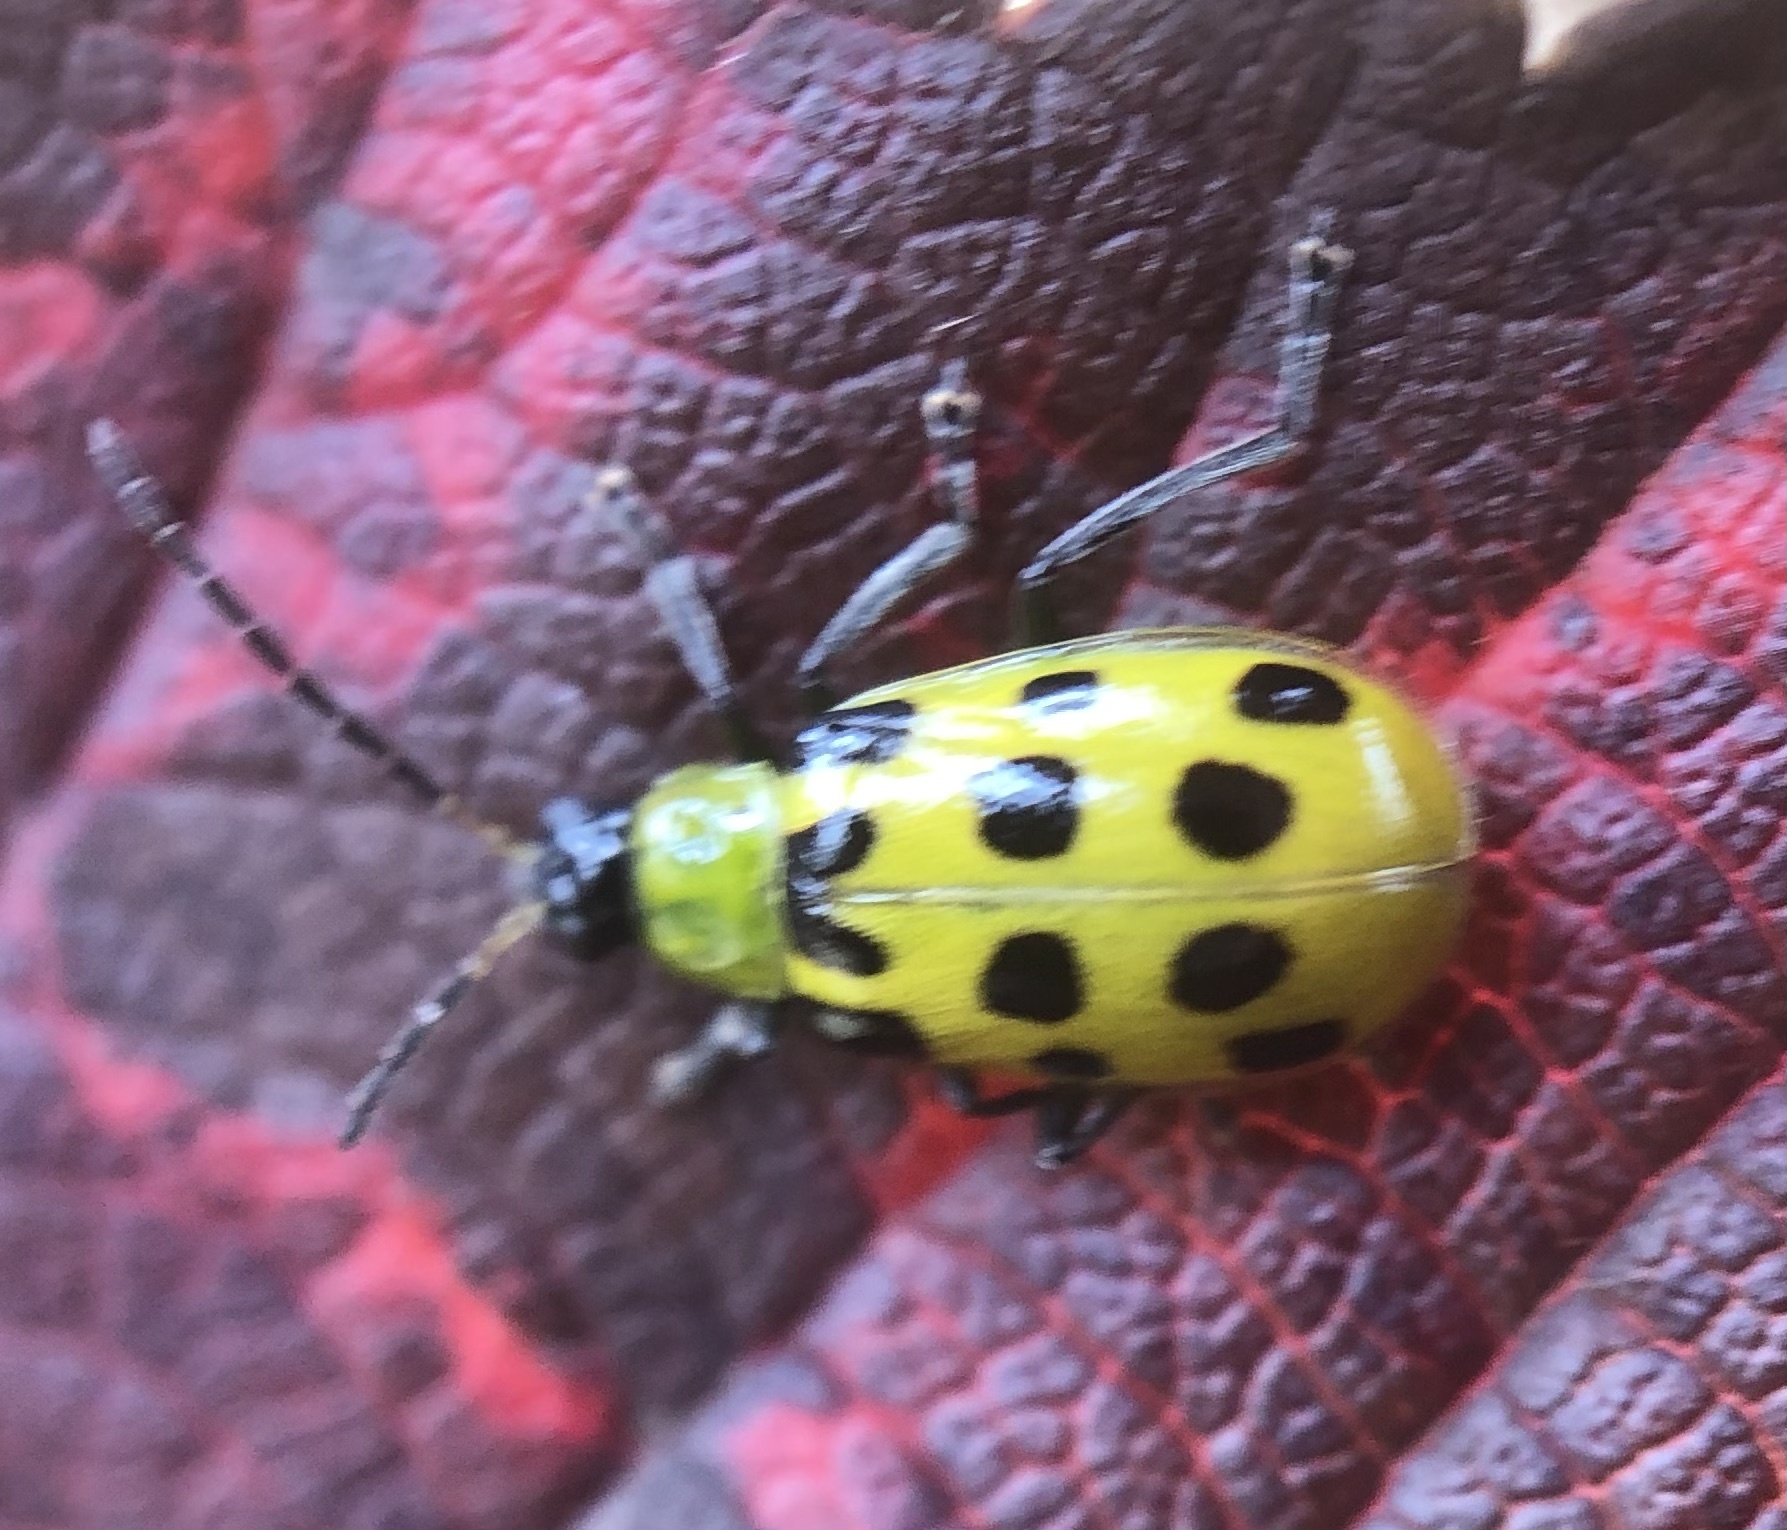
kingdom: Animalia
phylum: Arthropoda
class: Insecta
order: Coleoptera
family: Chrysomelidae
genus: Diabrotica
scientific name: Diabrotica undecimpunctata
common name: Spotted cucumber beetle
